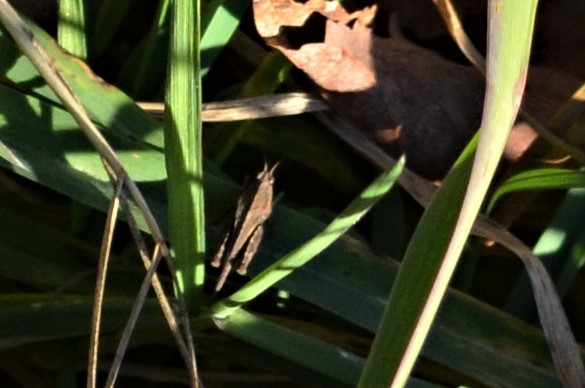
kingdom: Animalia
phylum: Arthropoda
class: Insecta
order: Orthoptera
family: Tetrigidae
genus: Tetrix
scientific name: Tetrix subulata
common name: Slender ground-hopper
